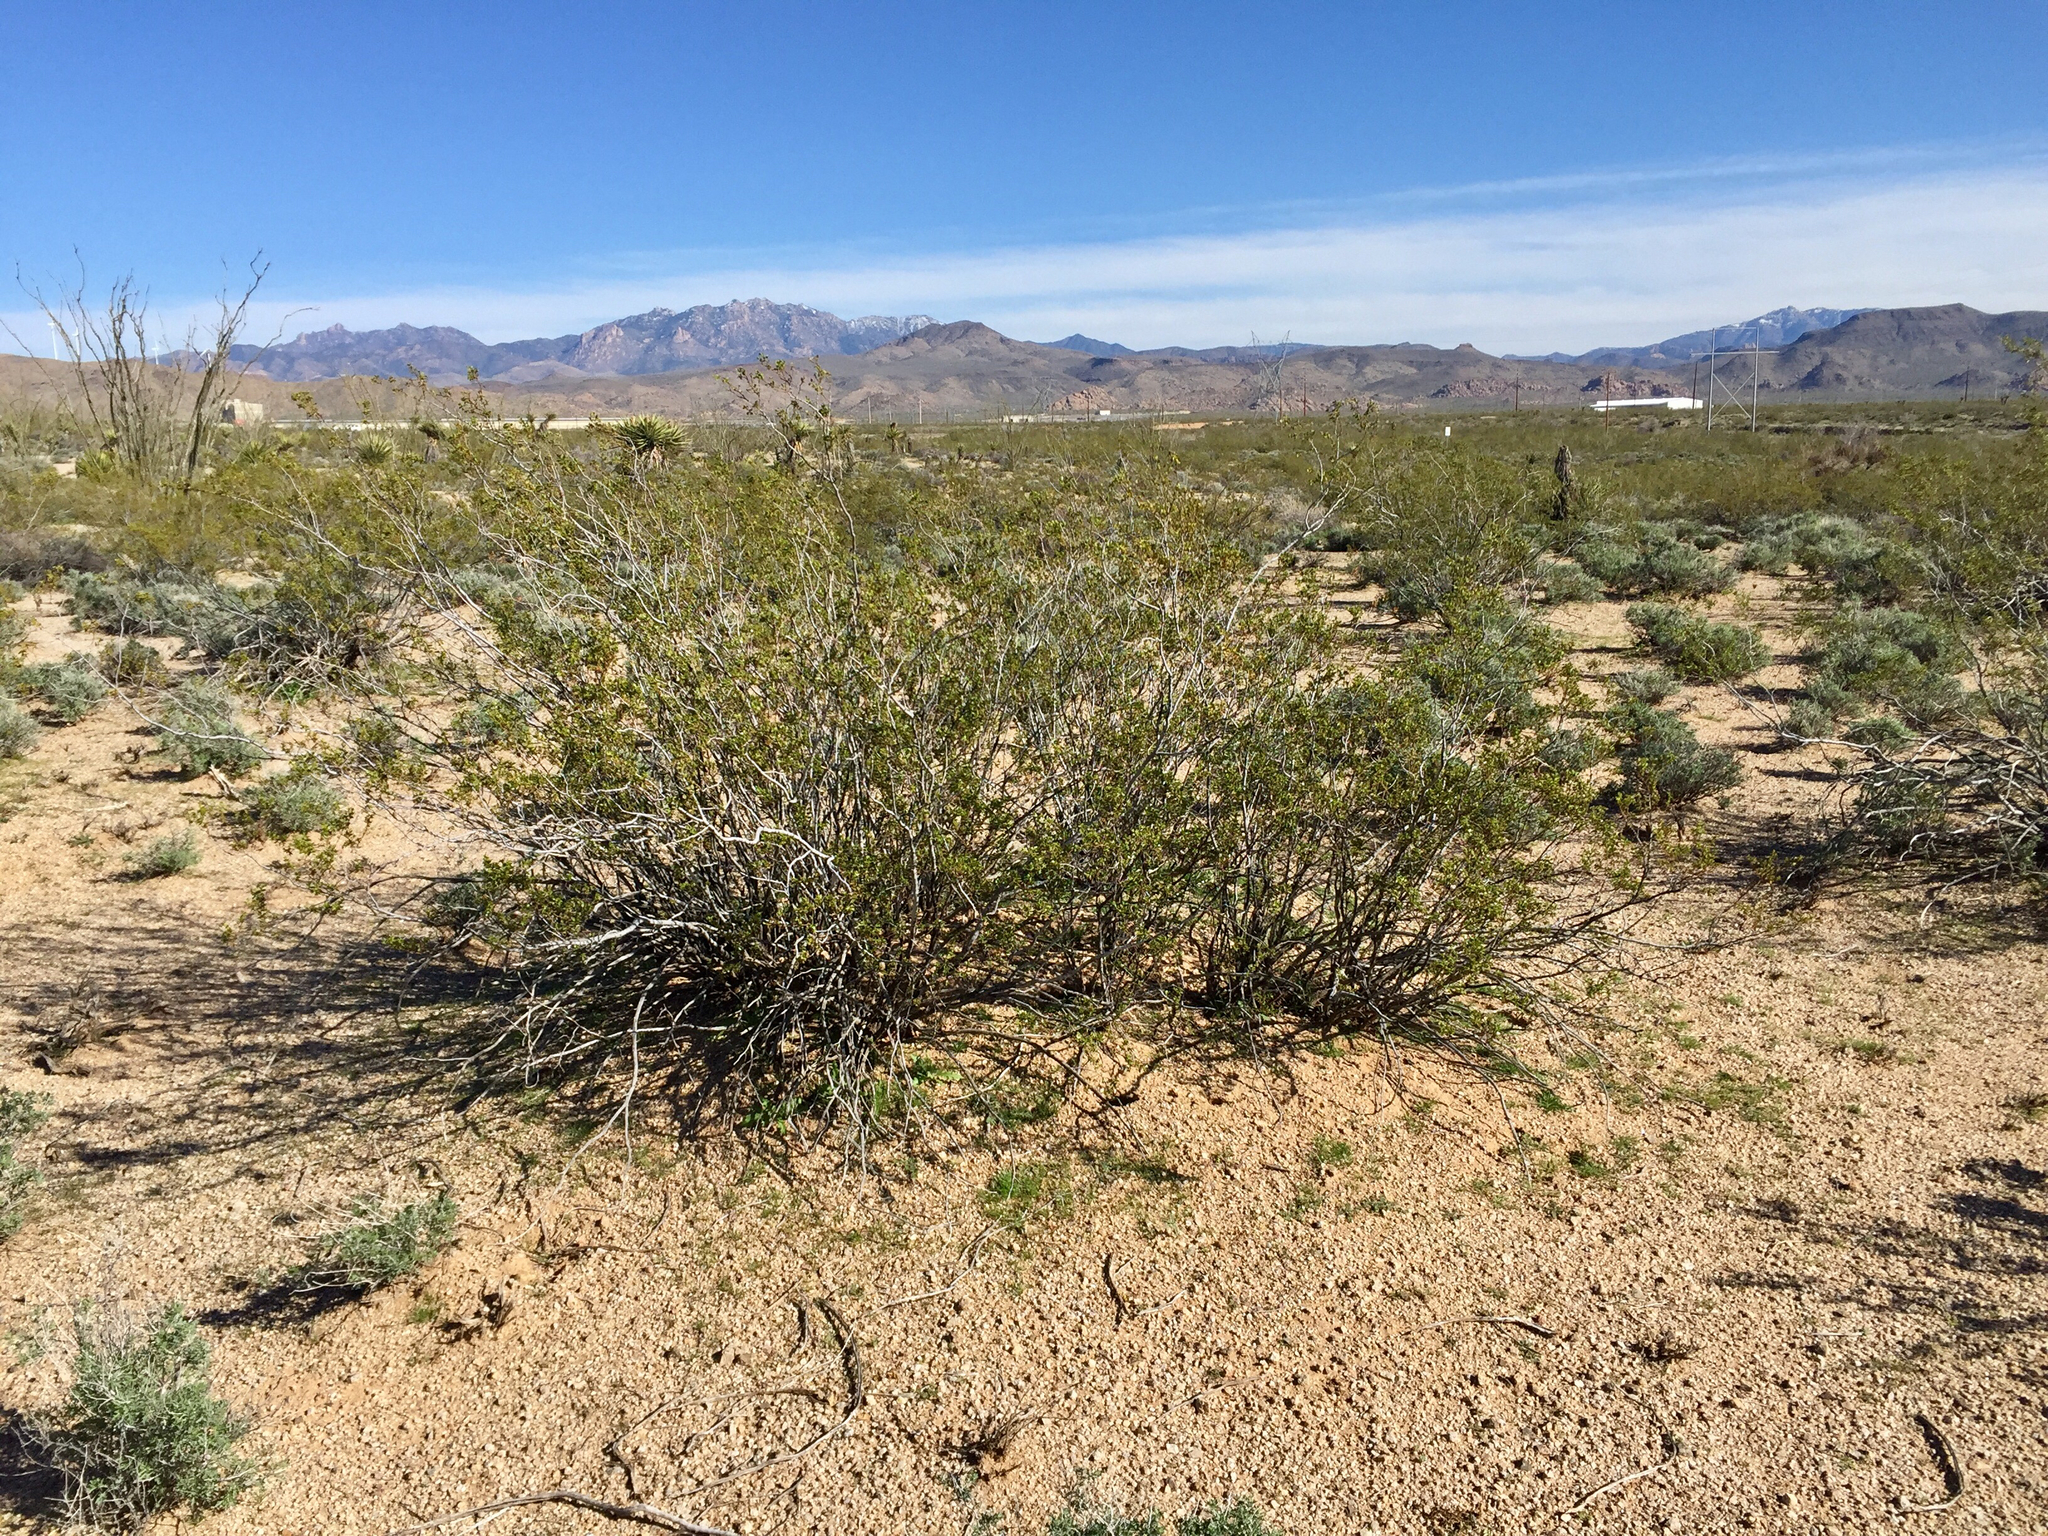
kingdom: Plantae
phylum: Tracheophyta
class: Magnoliopsida
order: Zygophyllales
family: Zygophyllaceae
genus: Larrea
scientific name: Larrea tridentata
